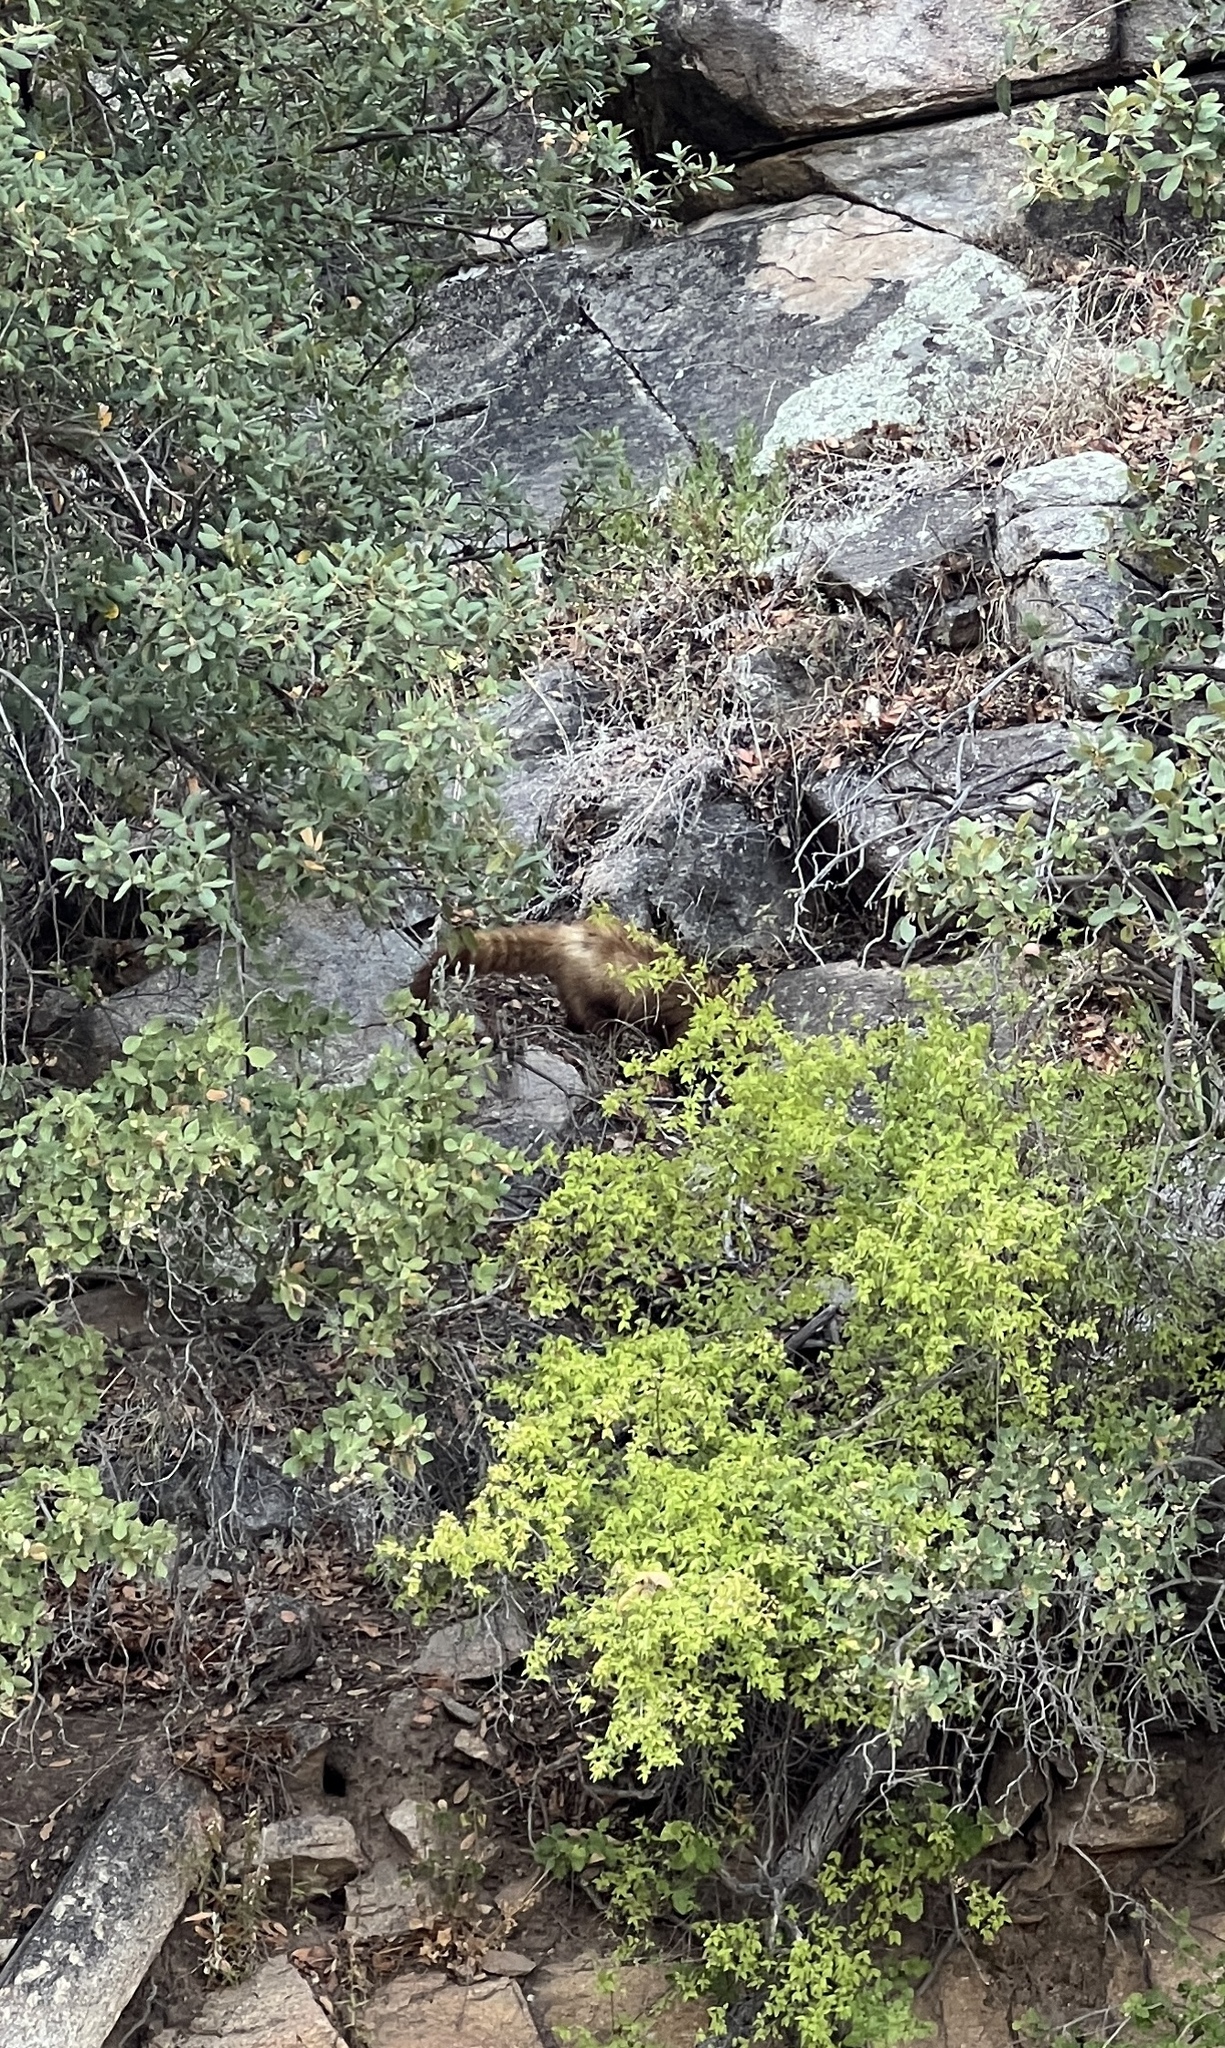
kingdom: Animalia
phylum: Chordata
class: Mammalia
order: Carnivora
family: Procyonidae
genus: Nasua
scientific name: Nasua narica
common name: White-nosed coati
